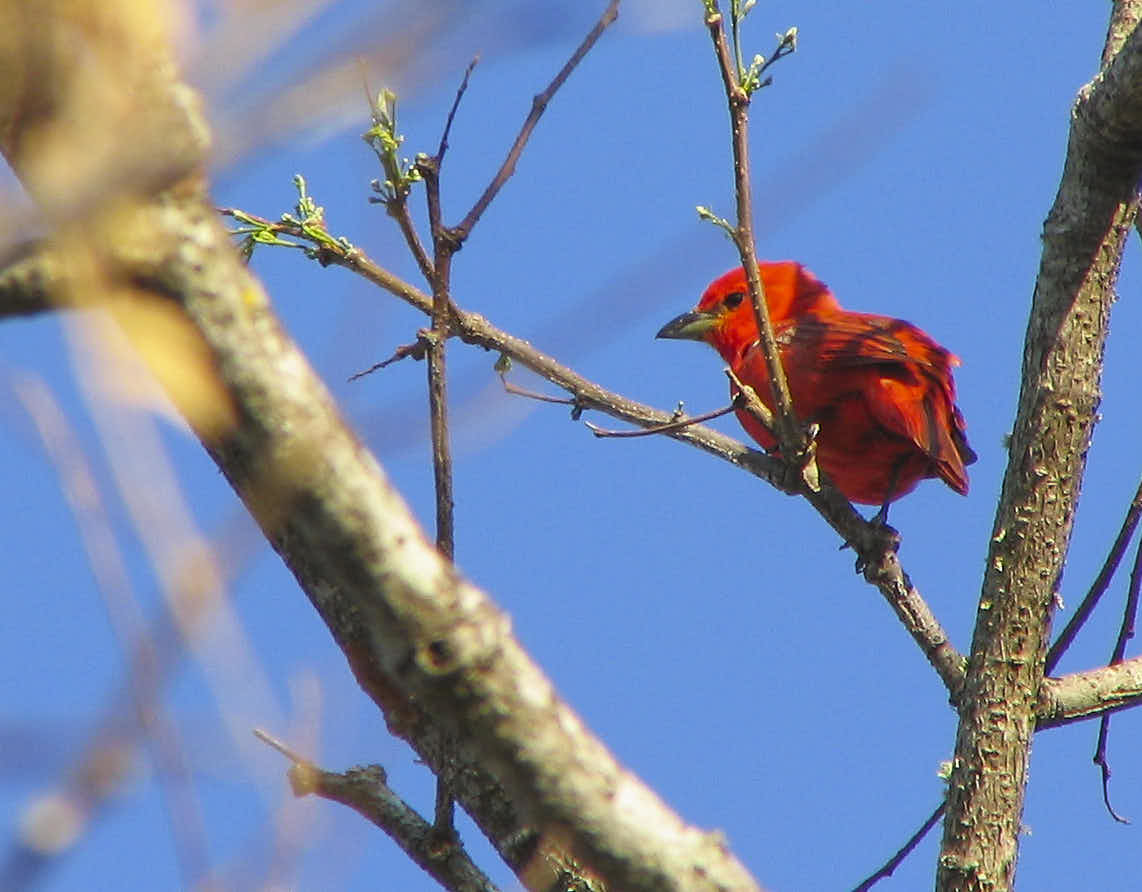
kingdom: Animalia
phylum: Chordata
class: Aves
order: Passeriformes
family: Cardinalidae
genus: Piranga
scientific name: Piranga flava
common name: Red tanager
